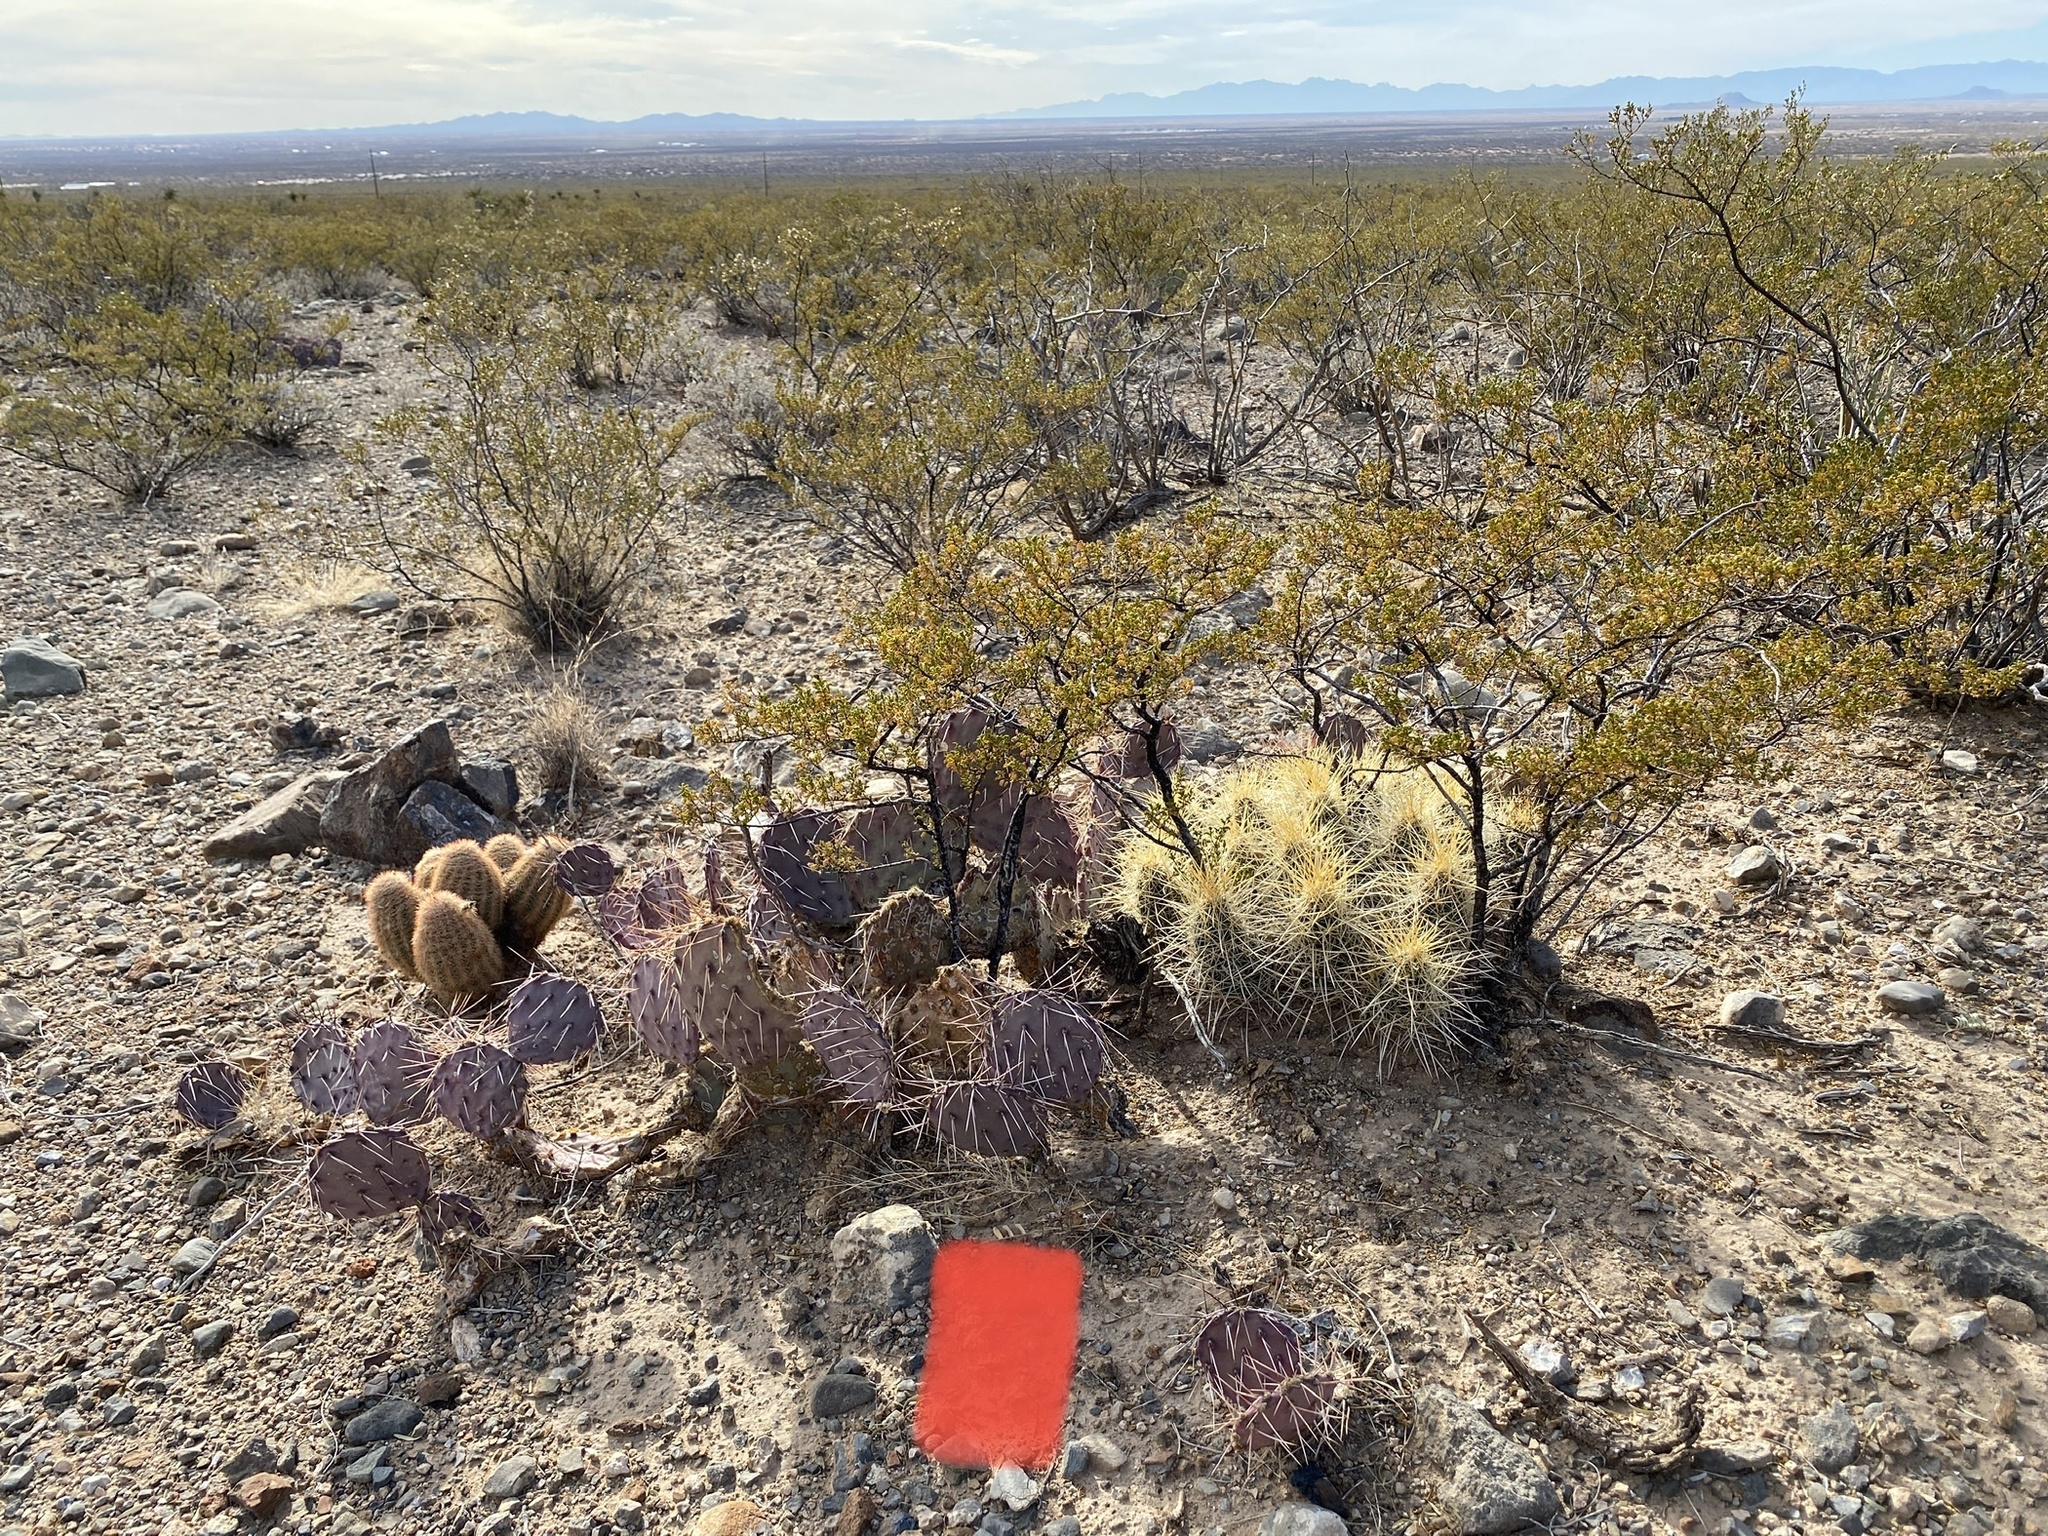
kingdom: Plantae
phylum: Tracheophyta
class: Magnoliopsida
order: Caryophyllales
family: Cactaceae
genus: Opuntia
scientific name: Opuntia macrocentra
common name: Purple prickly-pear
